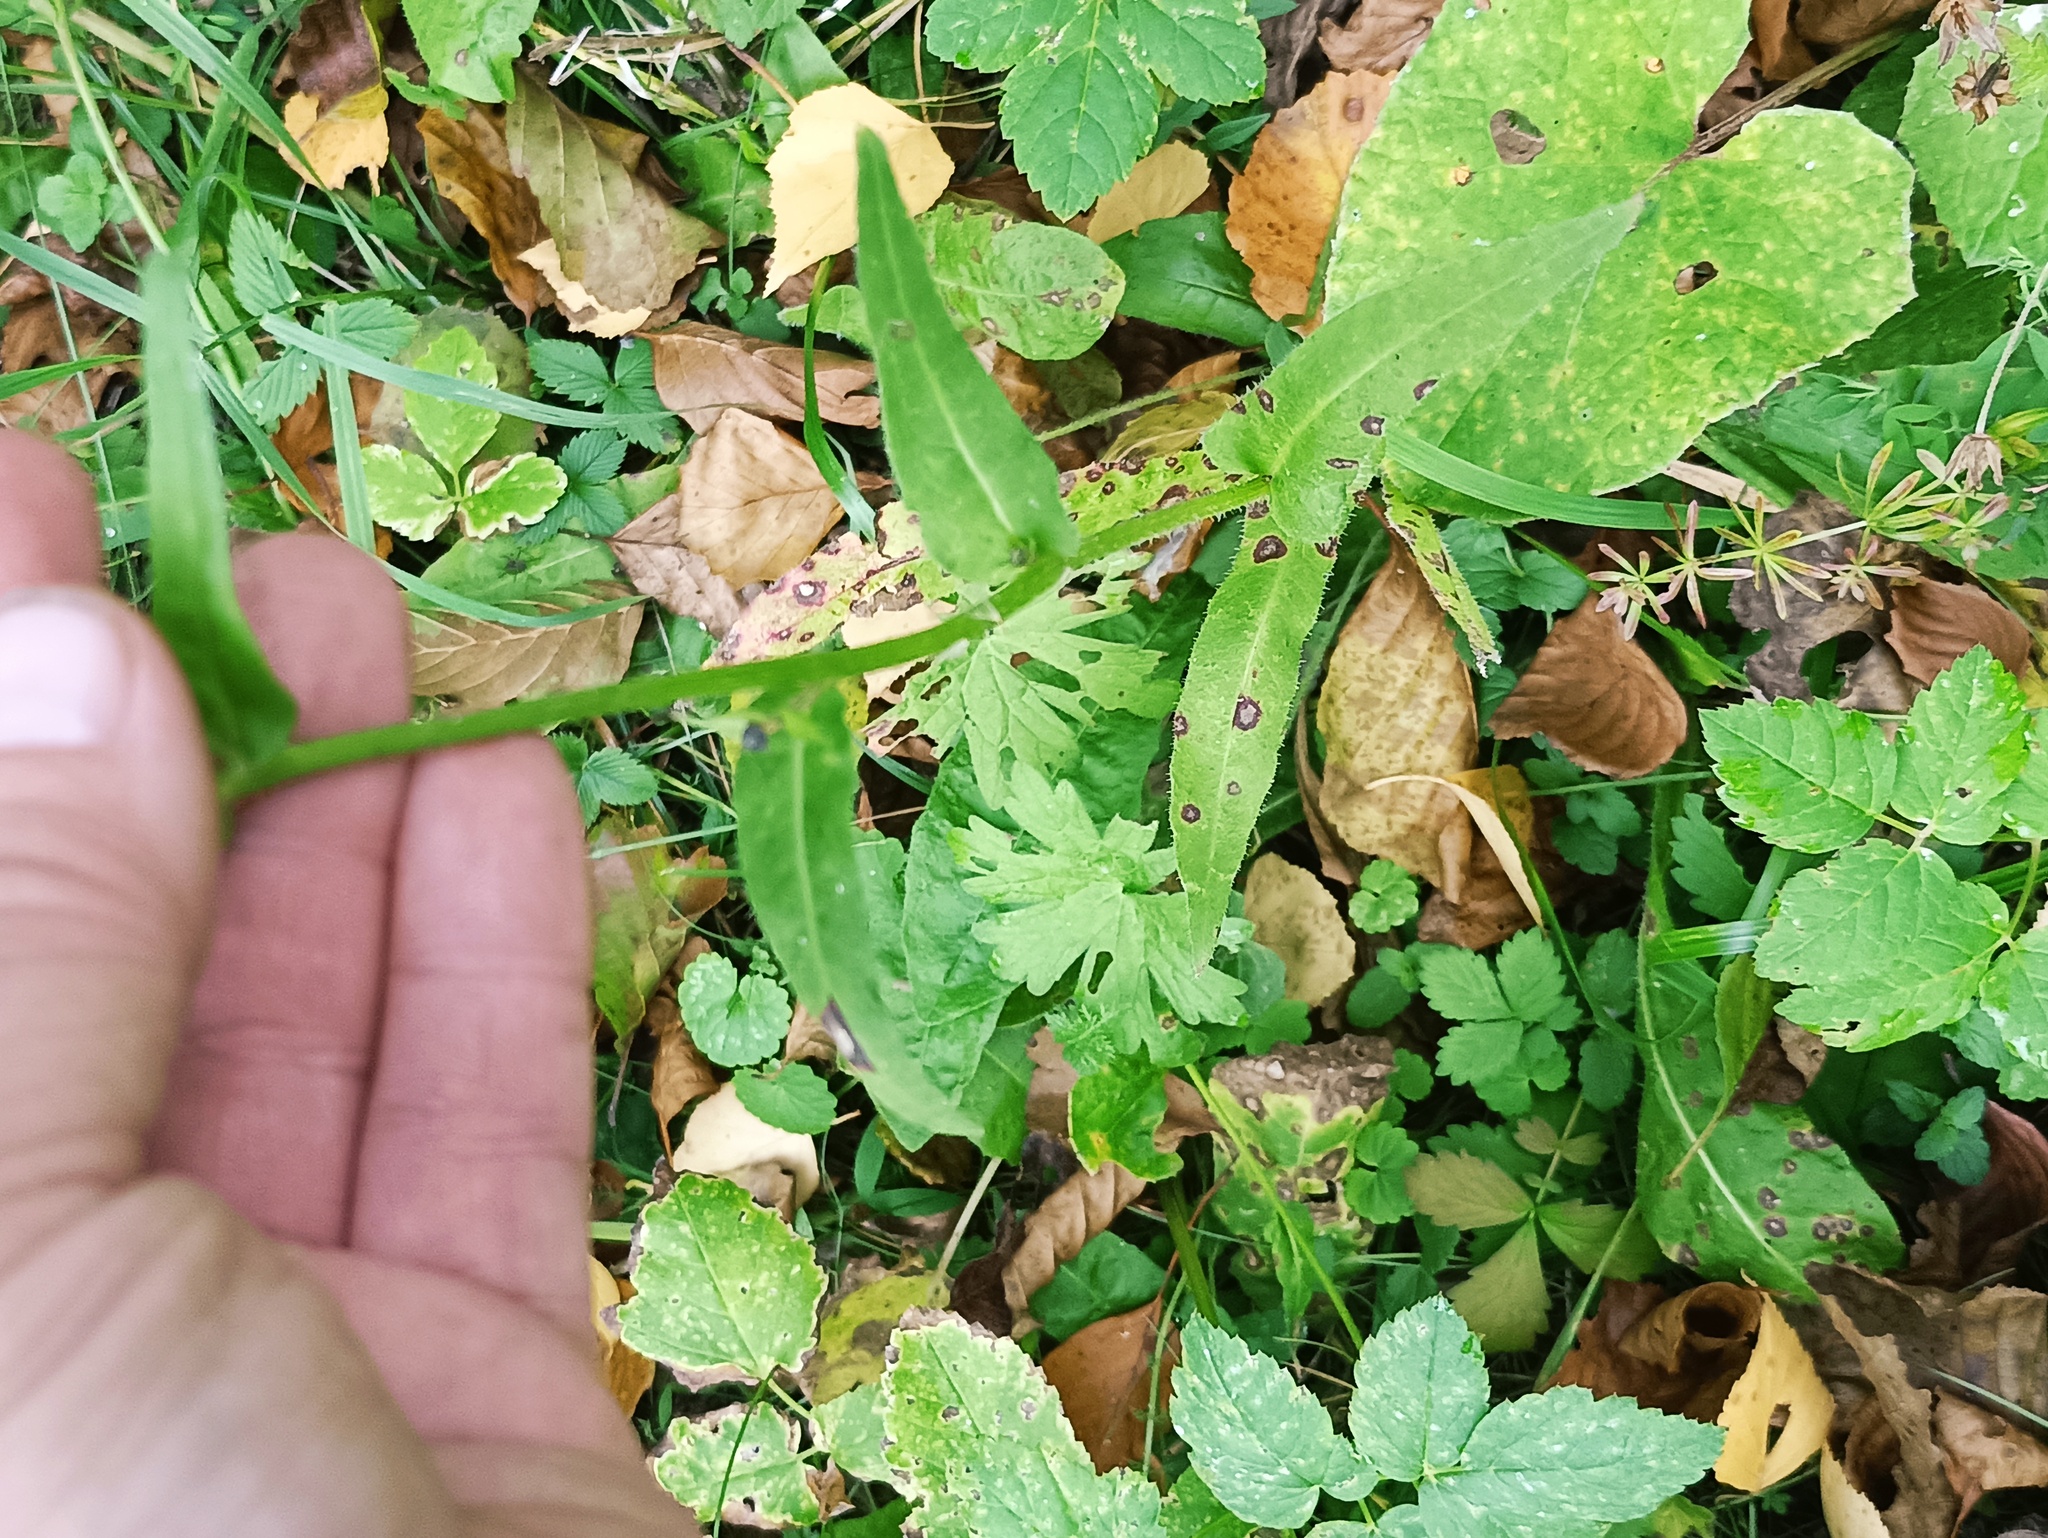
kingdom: Plantae
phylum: Tracheophyta
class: Magnoliopsida
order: Asterales
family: Asteraceae
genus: Picris
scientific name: Picris hieracioides
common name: Hawkweed oxtongue
